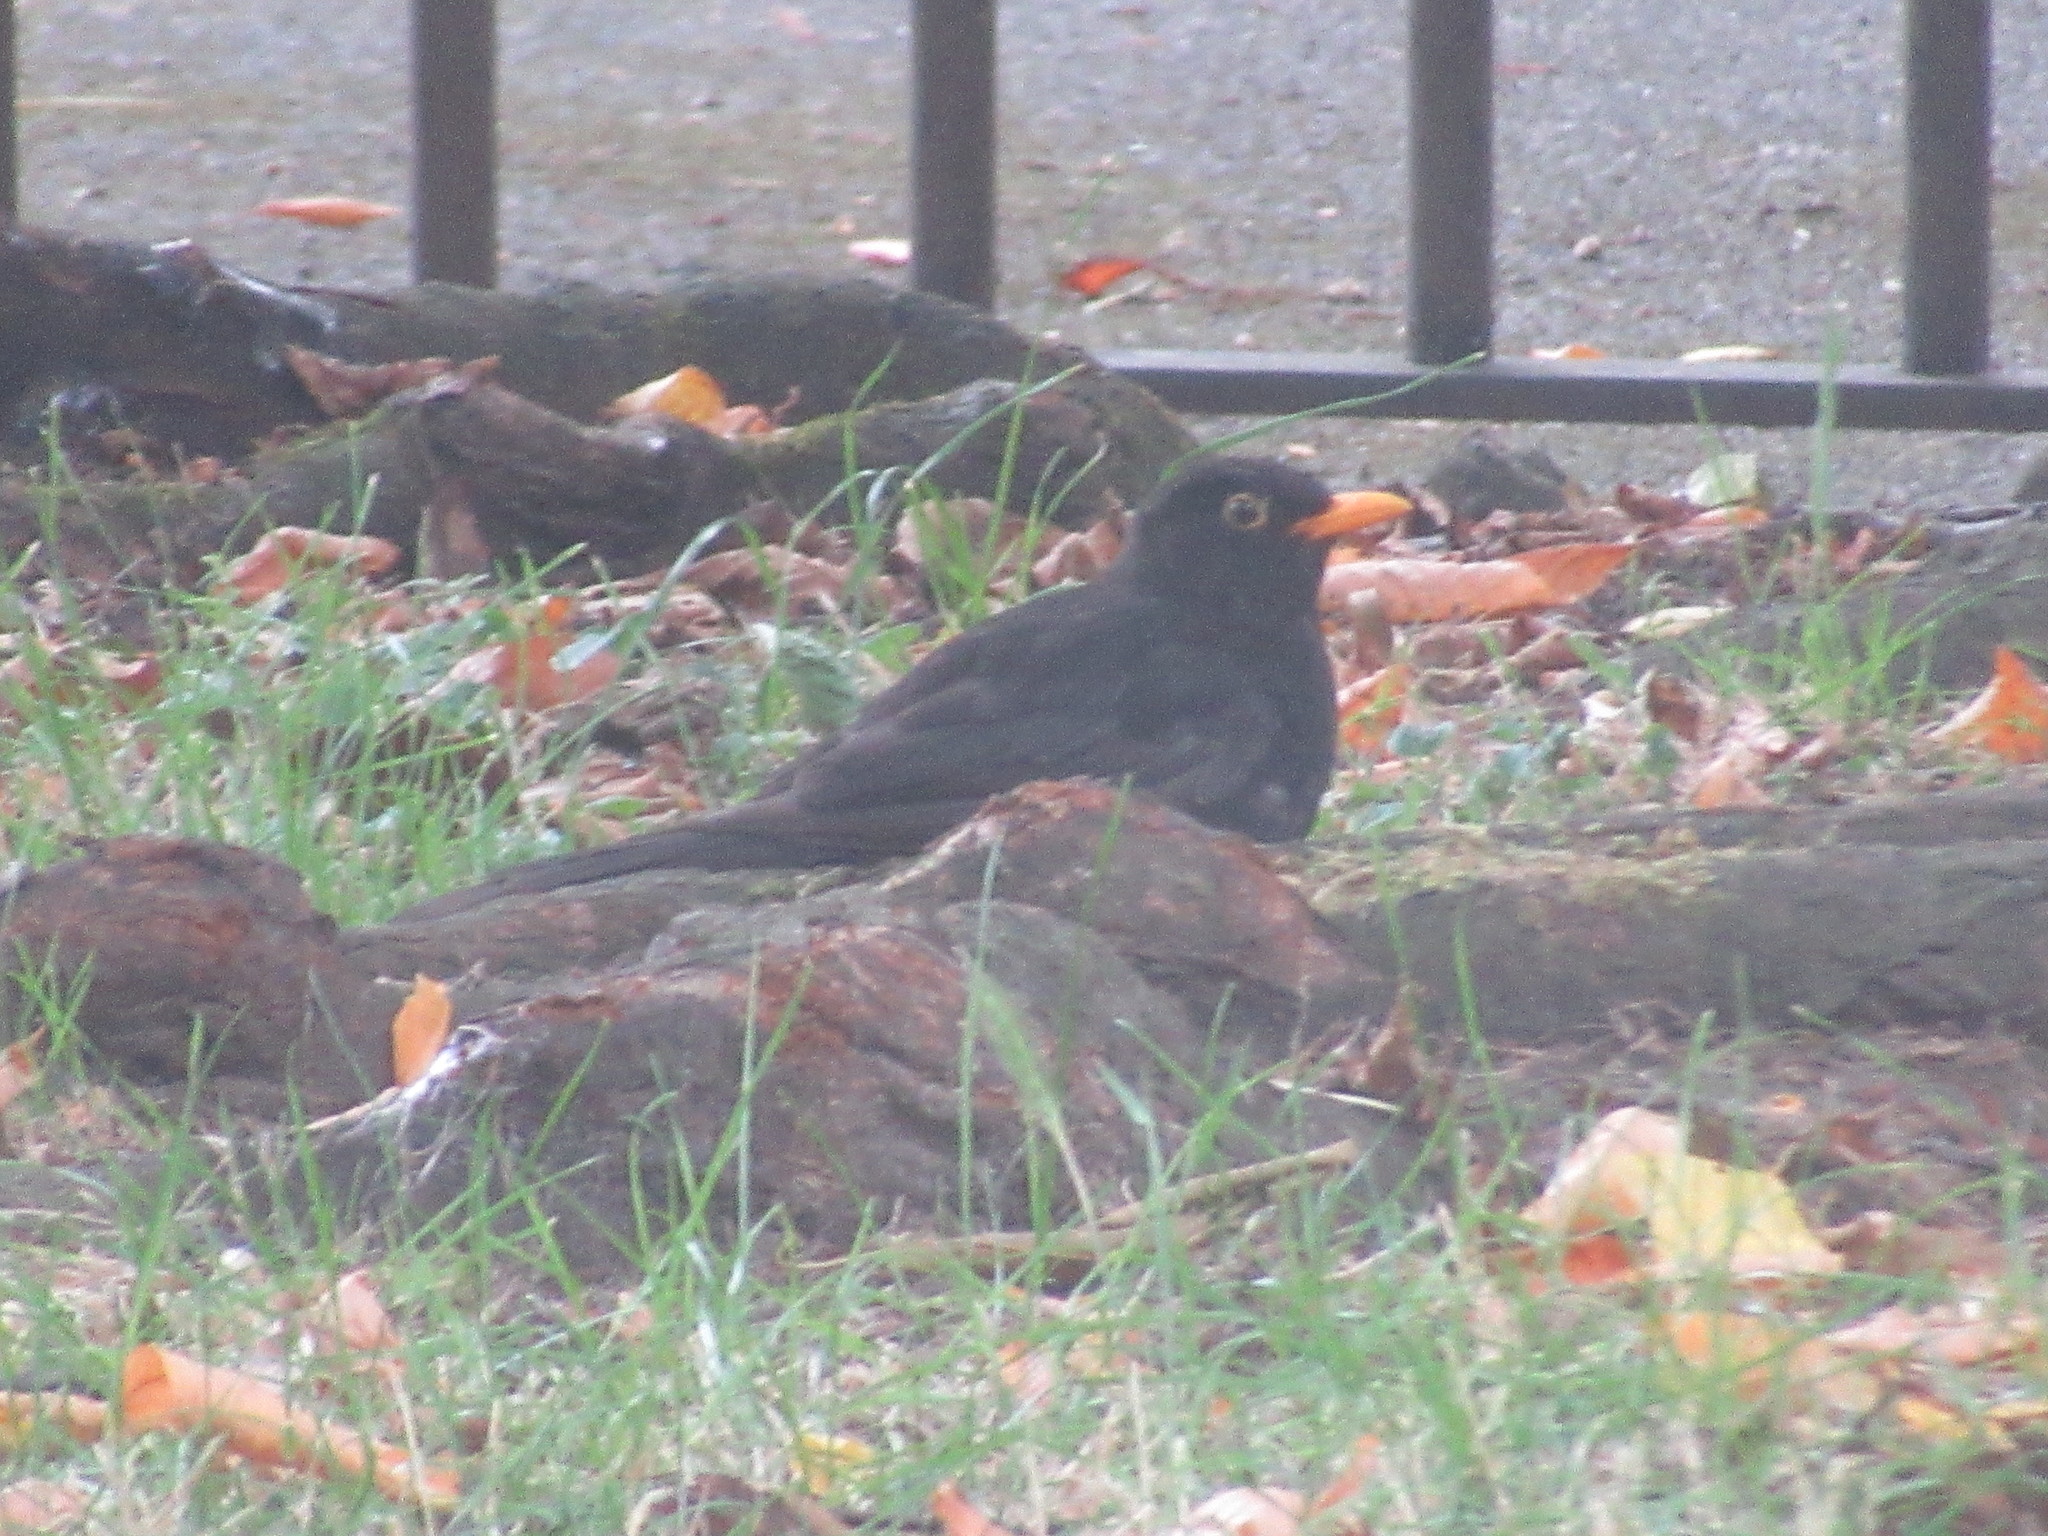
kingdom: Animalia
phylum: Chordata
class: Aves
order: Passeriformes
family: Turdidae
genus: Turdus
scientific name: Turdus merula
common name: Common blackbird
